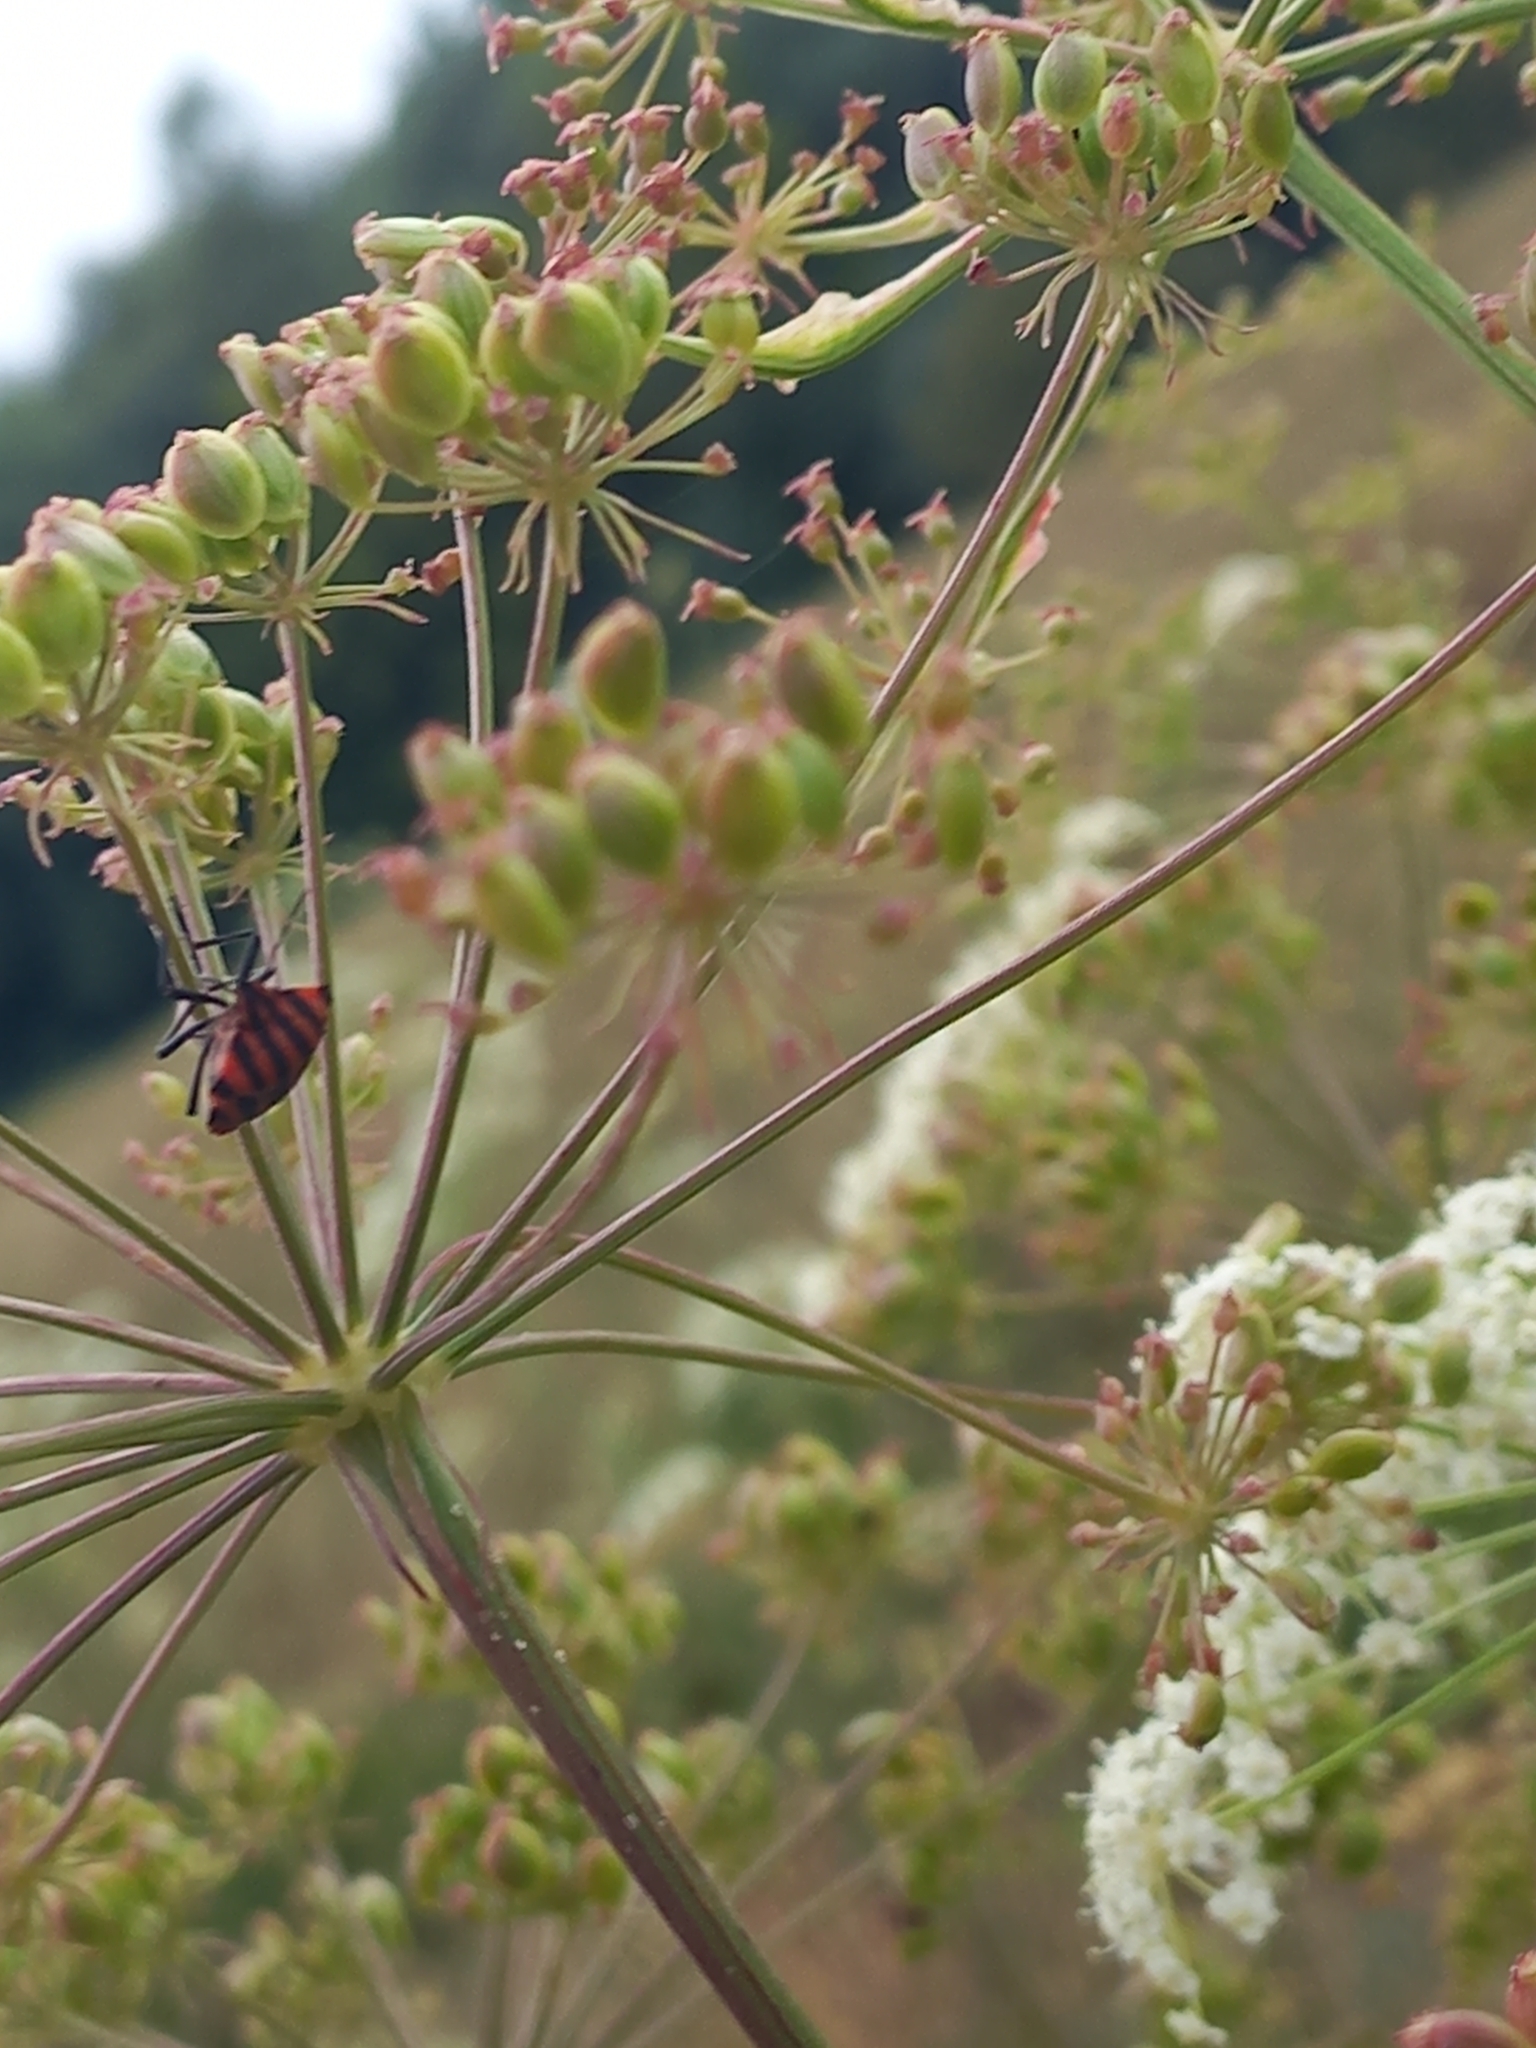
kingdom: Animalia
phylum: Arthropoda
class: Insecta
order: Hemiptera
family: Pentatomidae
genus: Graphosoma
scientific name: Graphosoma italicum
